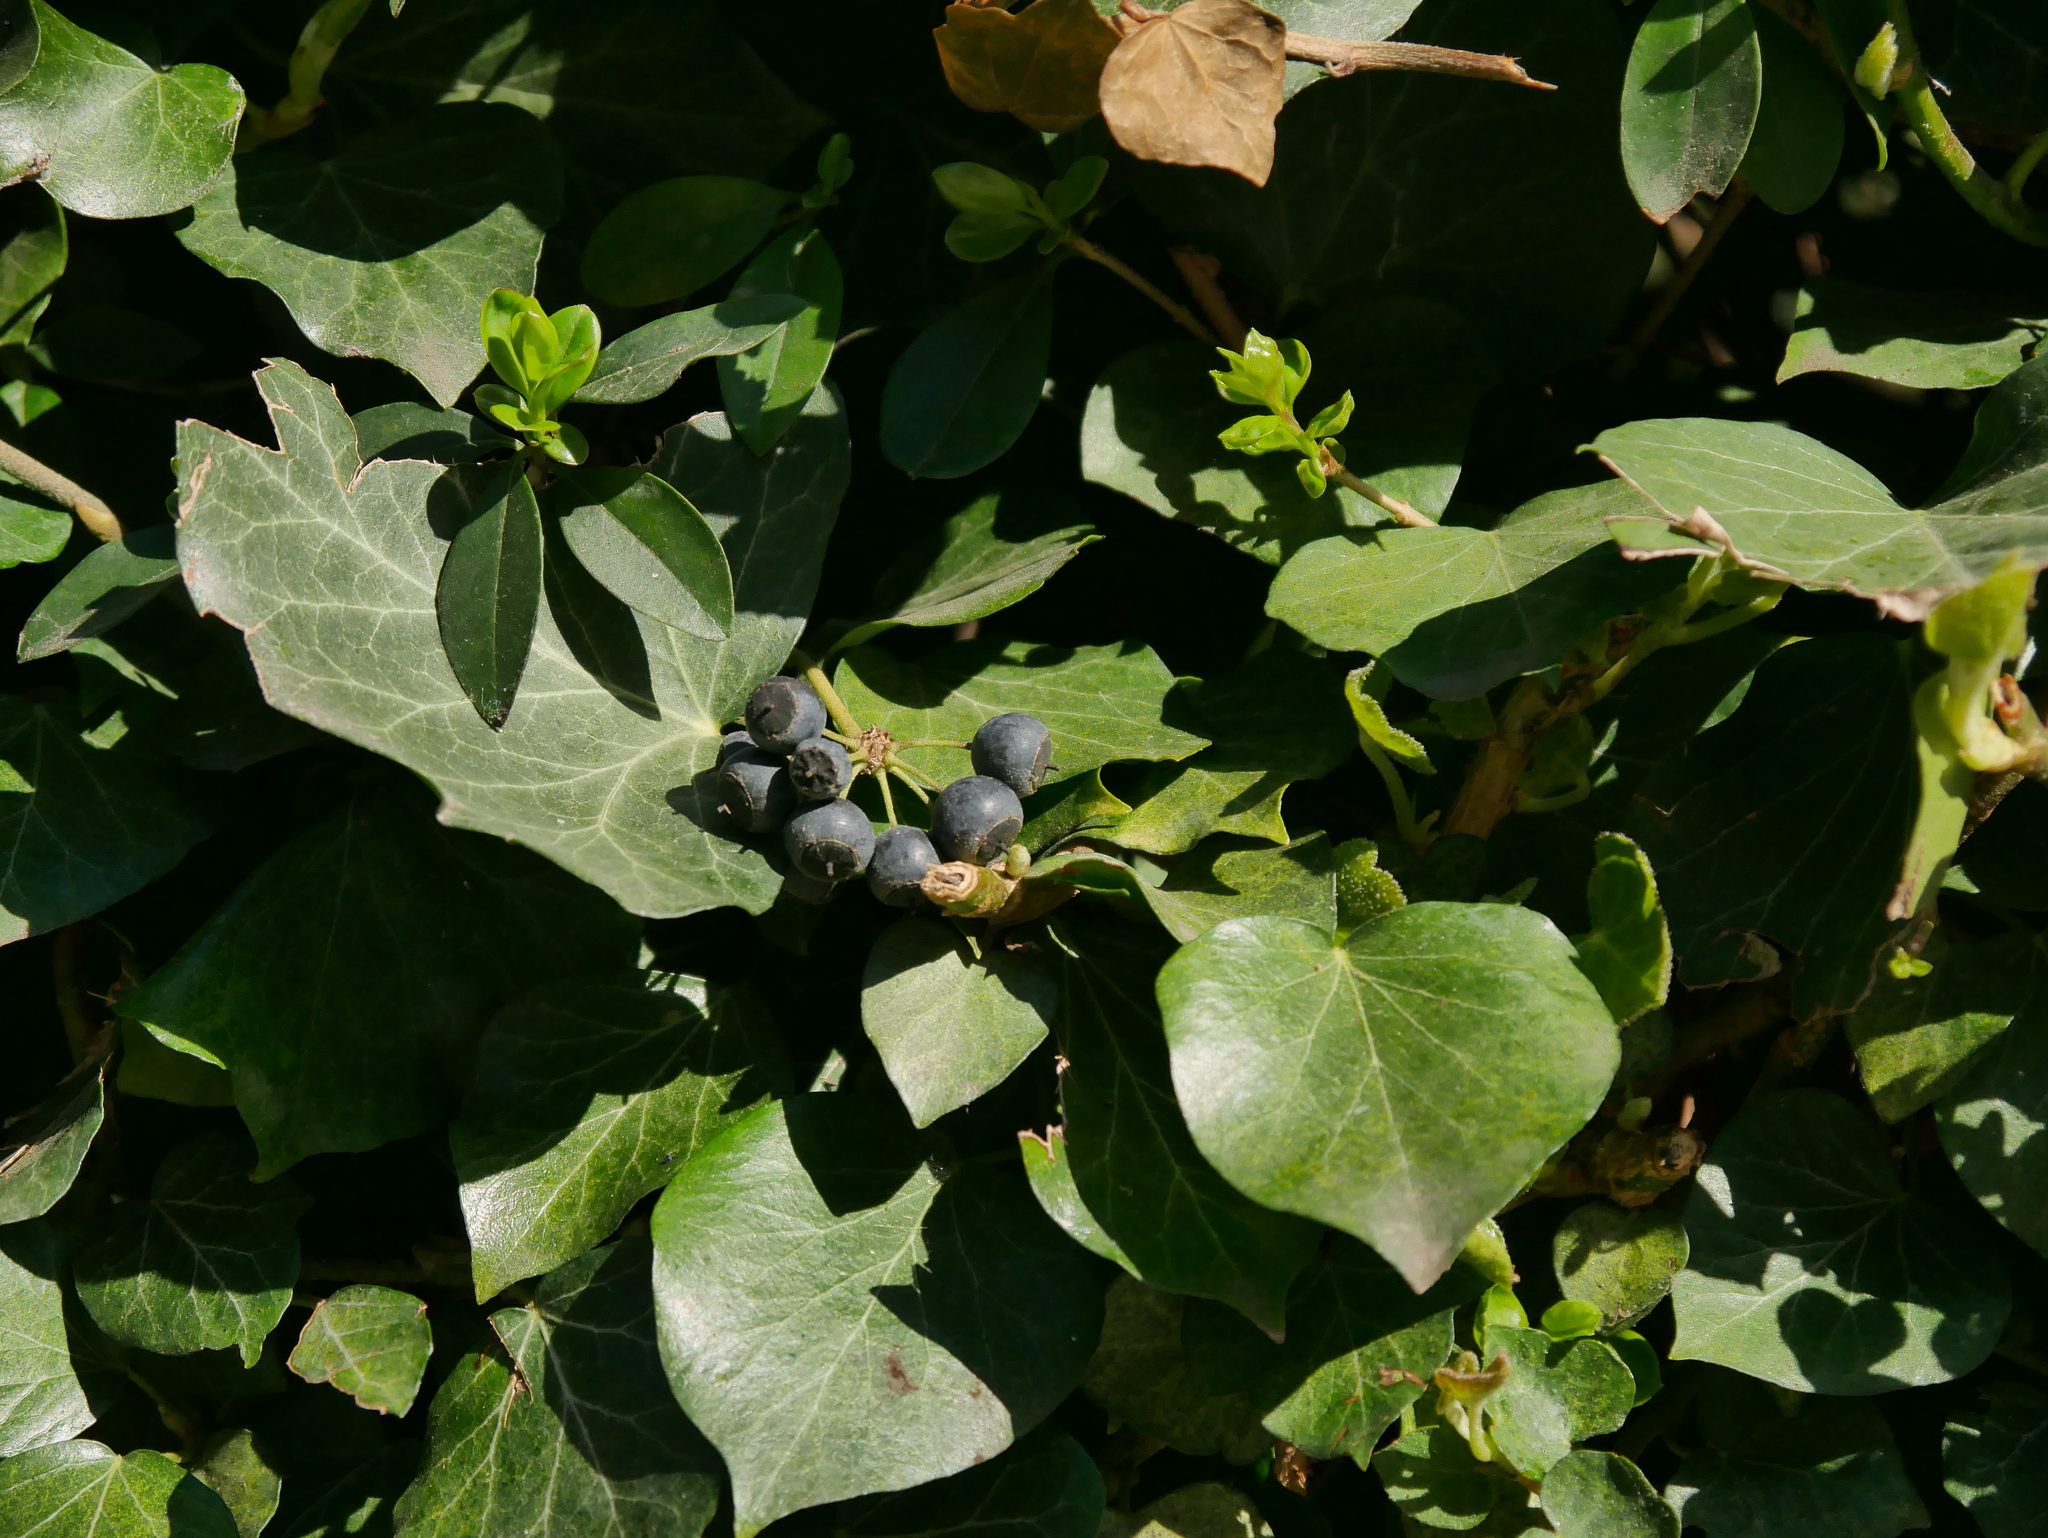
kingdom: Plantae
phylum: Tracheophyta
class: Magnoliopsida
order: Apiales
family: Araliaceae
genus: Hedera
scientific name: Hedera helix
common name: Ivy
